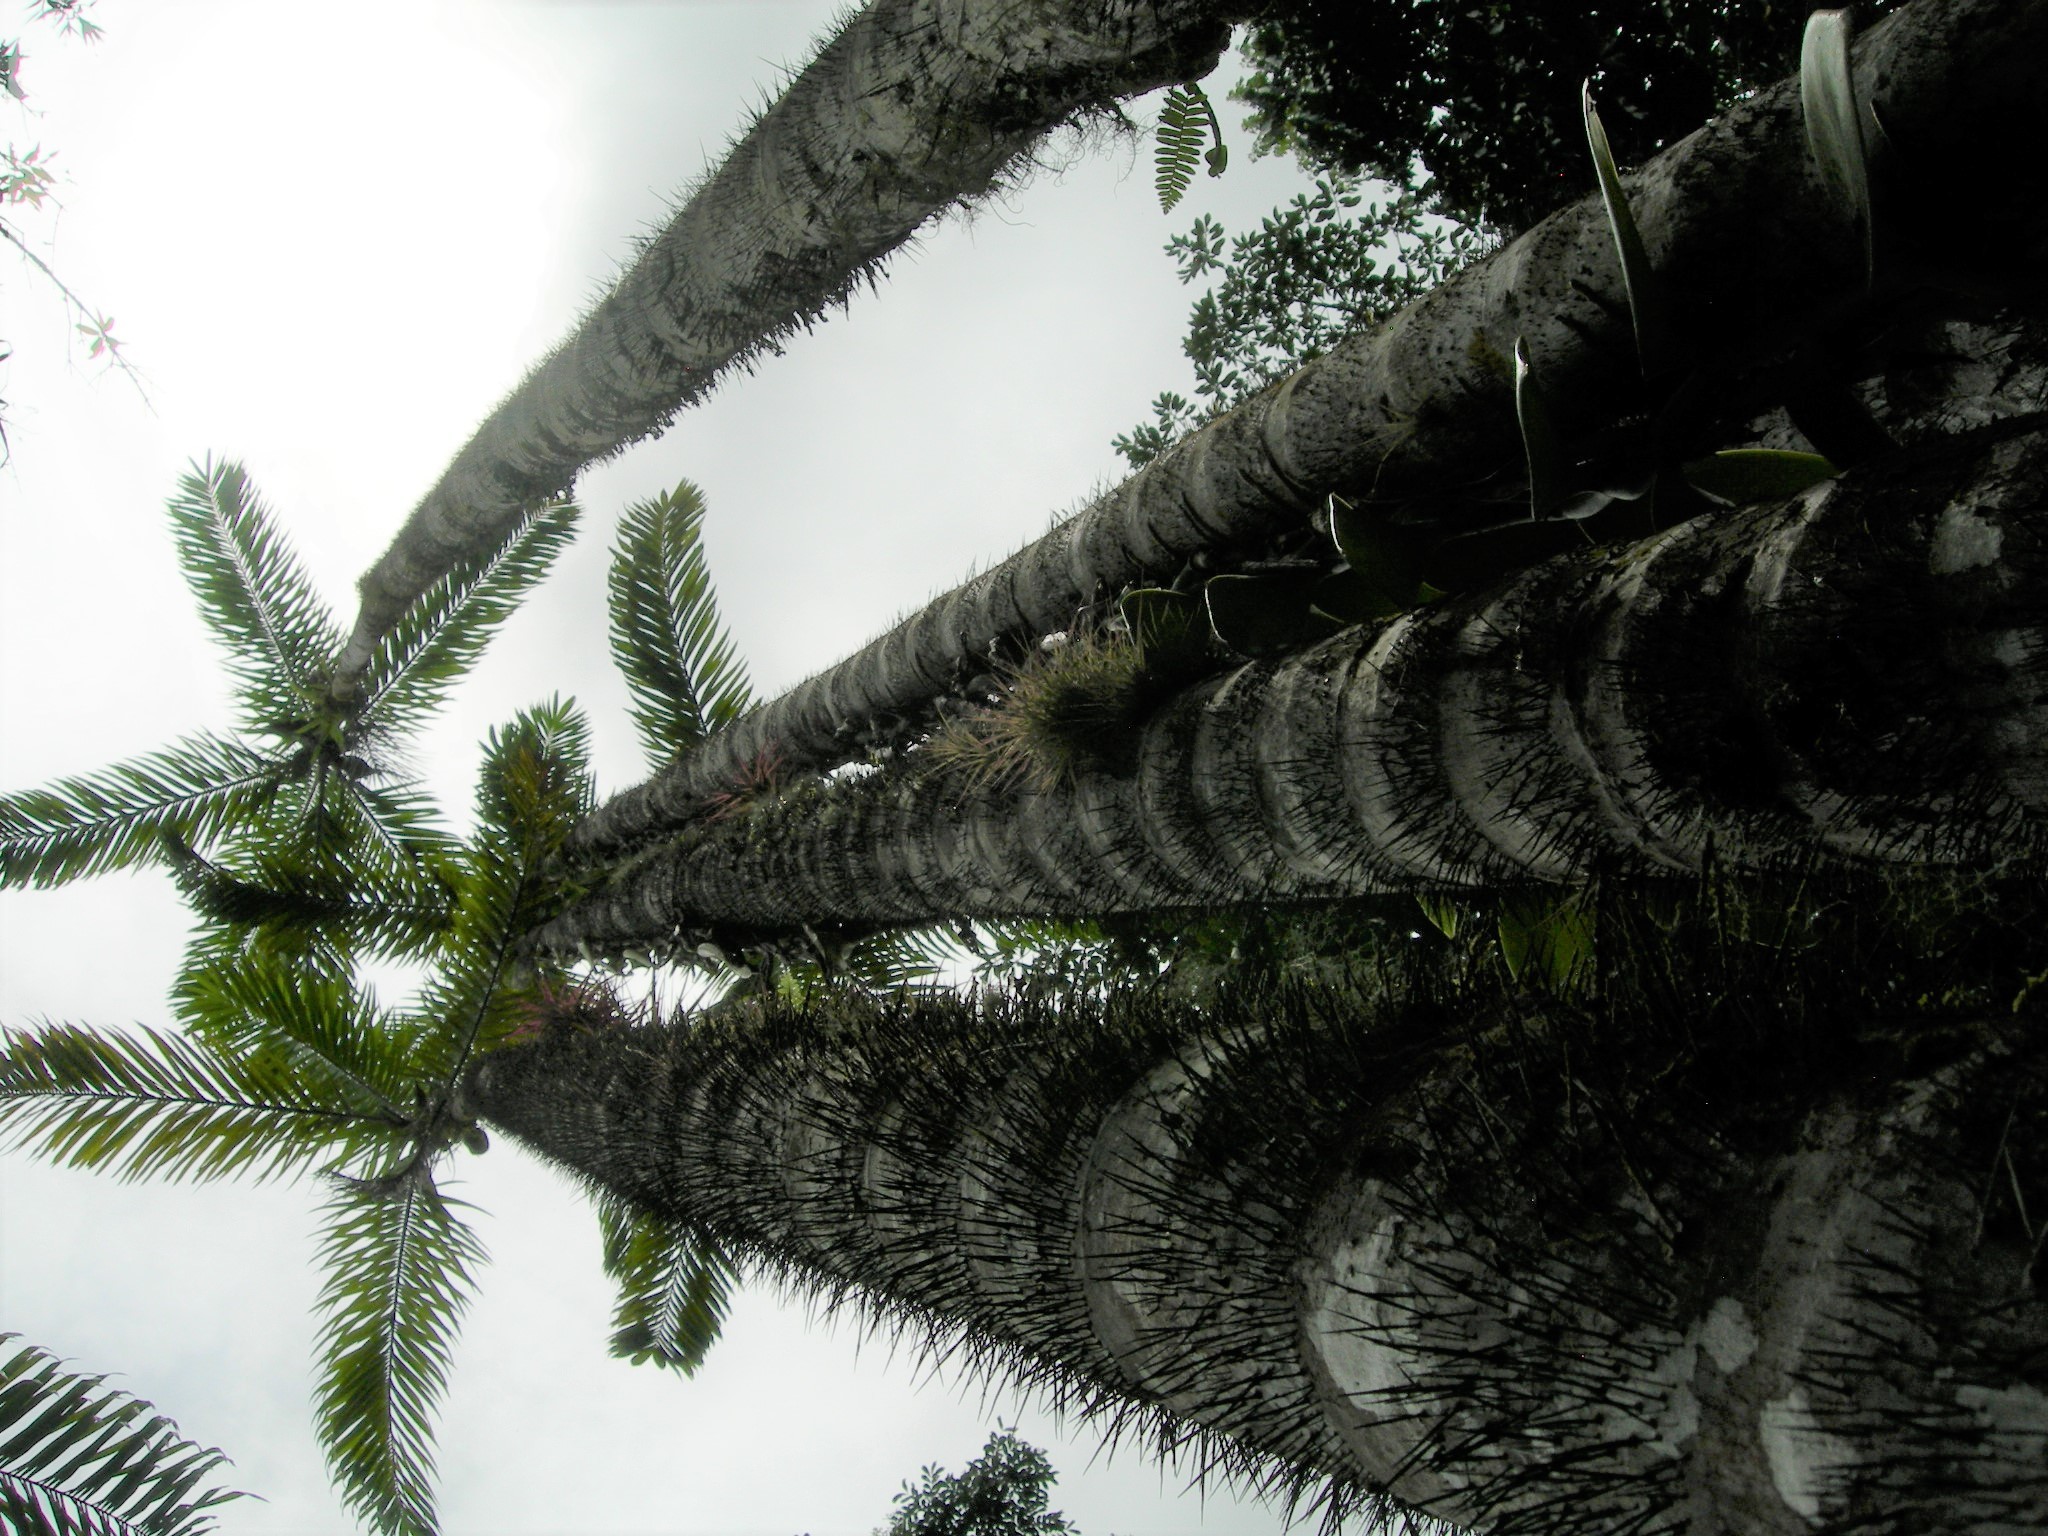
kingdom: Plantae
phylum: Tracheophyta
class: Liliopsida
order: Arecales
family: Arecaceae
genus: Bactris
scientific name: Bactris gasipaes
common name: Peach palm
